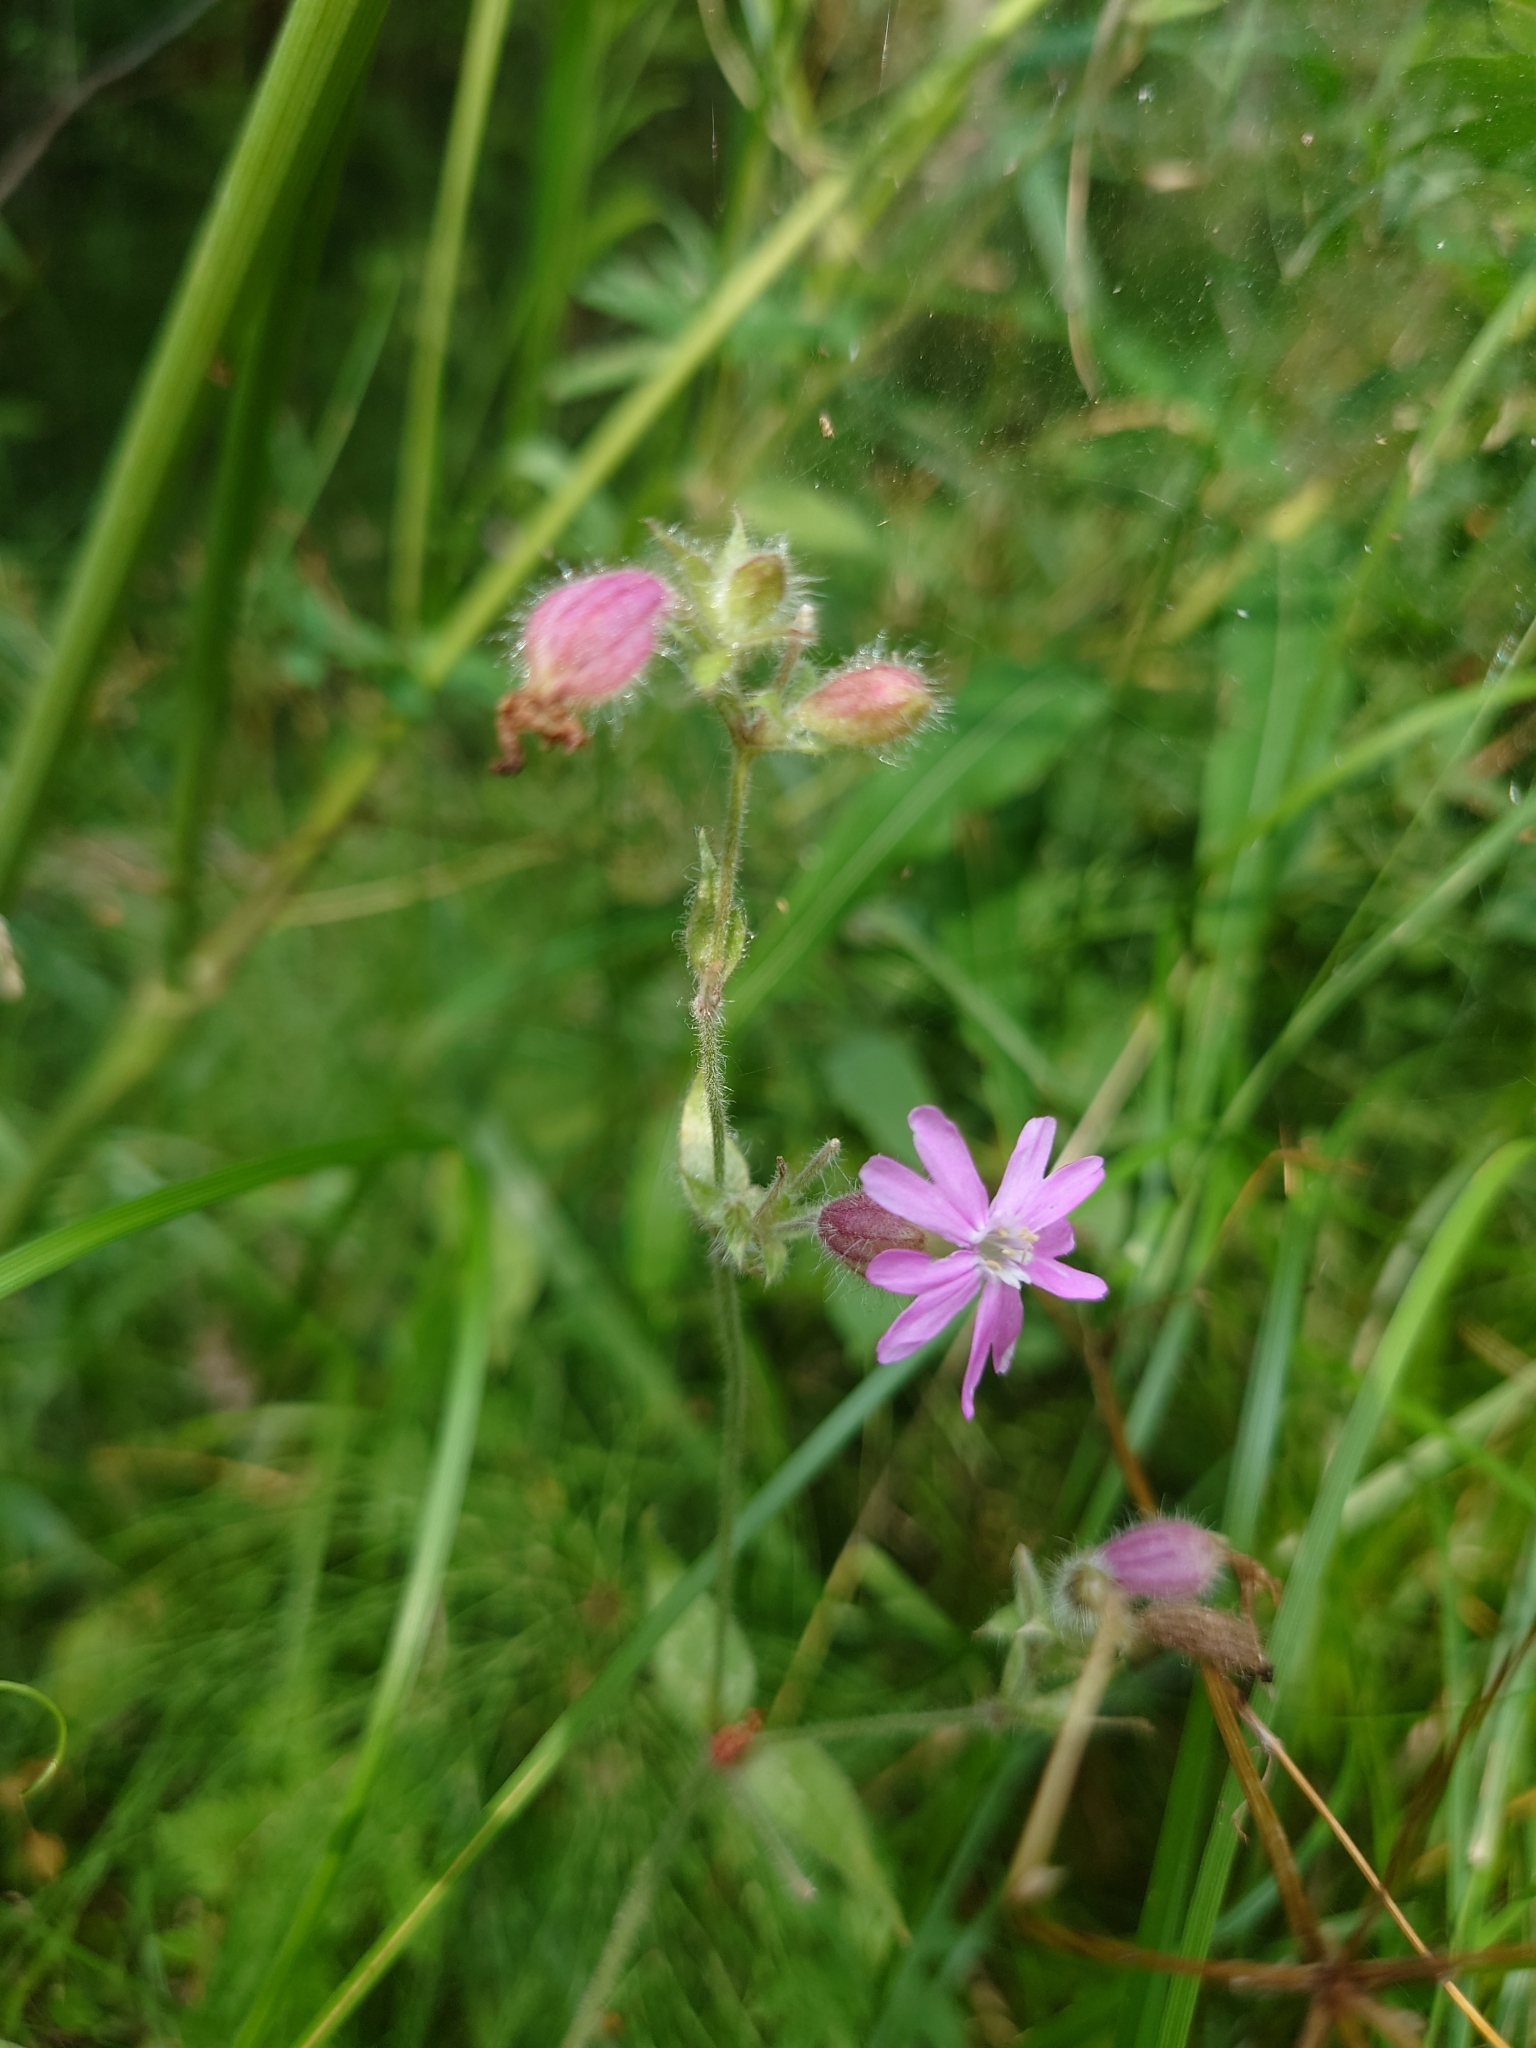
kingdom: Plantae
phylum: Tracheophyta
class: Magnoliopsida
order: Caryophyllales
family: Caryophyllaceae
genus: Silene
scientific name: Silene dioica
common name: Red campion
